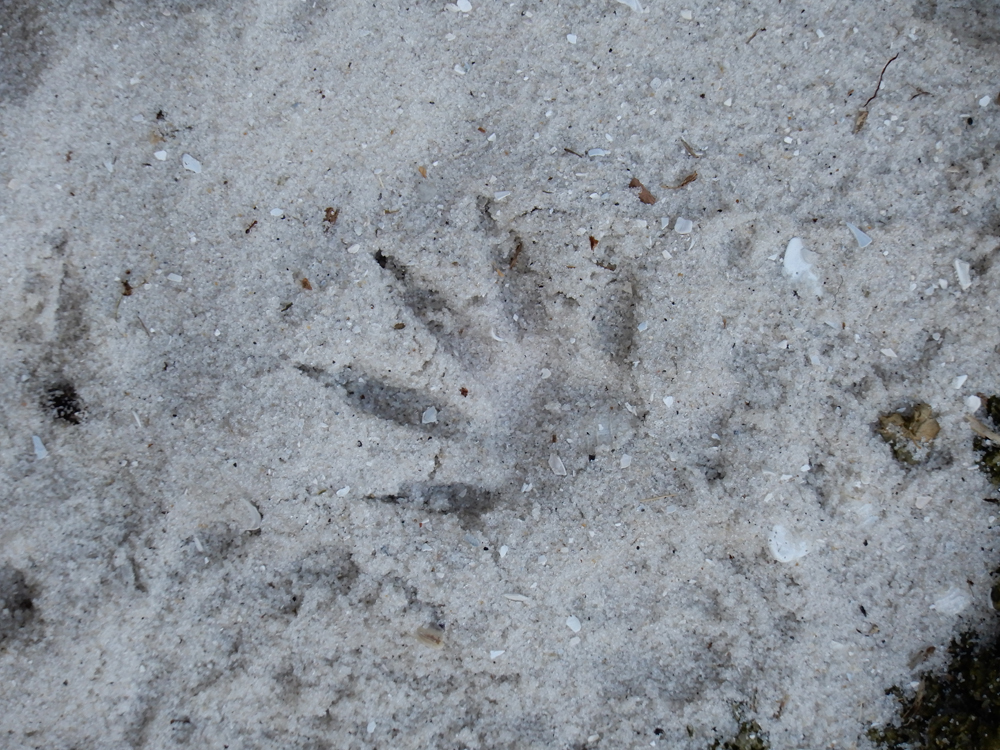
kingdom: Animalia
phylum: Chordata
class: Mammalia
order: Carnivora
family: Procyonidae
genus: Procyon
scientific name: Procyon lotor
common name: Raccoon
